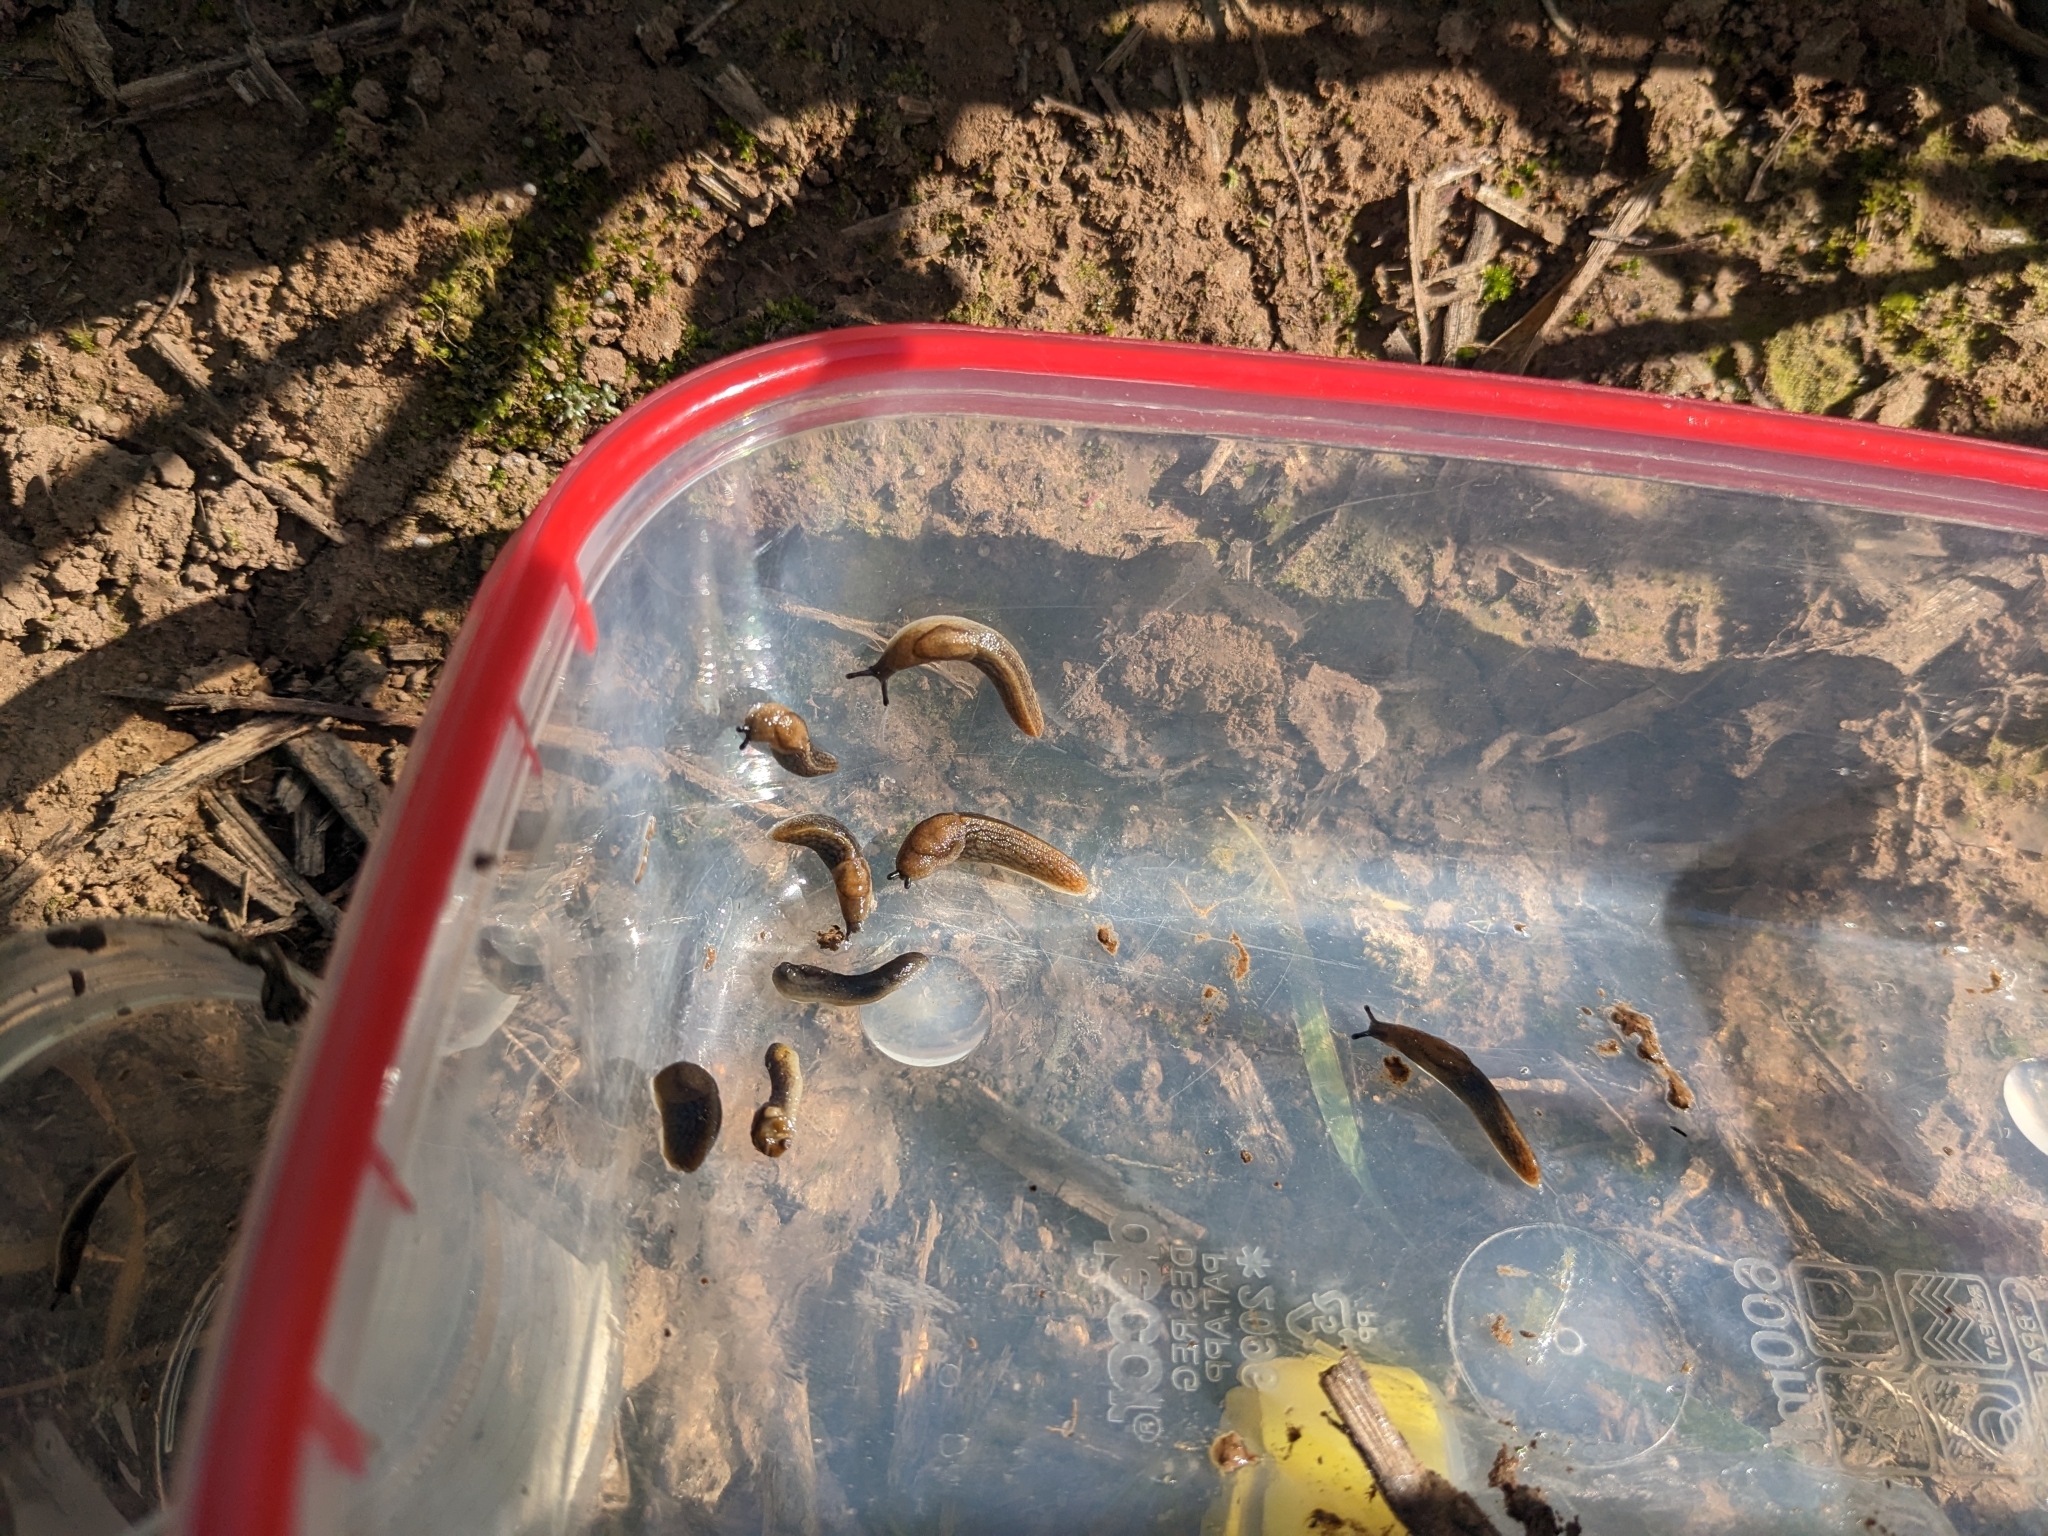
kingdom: Animalia
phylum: Mollusca
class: Gastropoda
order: Stylommatophora
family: Milacidae
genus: Milax
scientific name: Milax gagates
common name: Greenhouse slug
